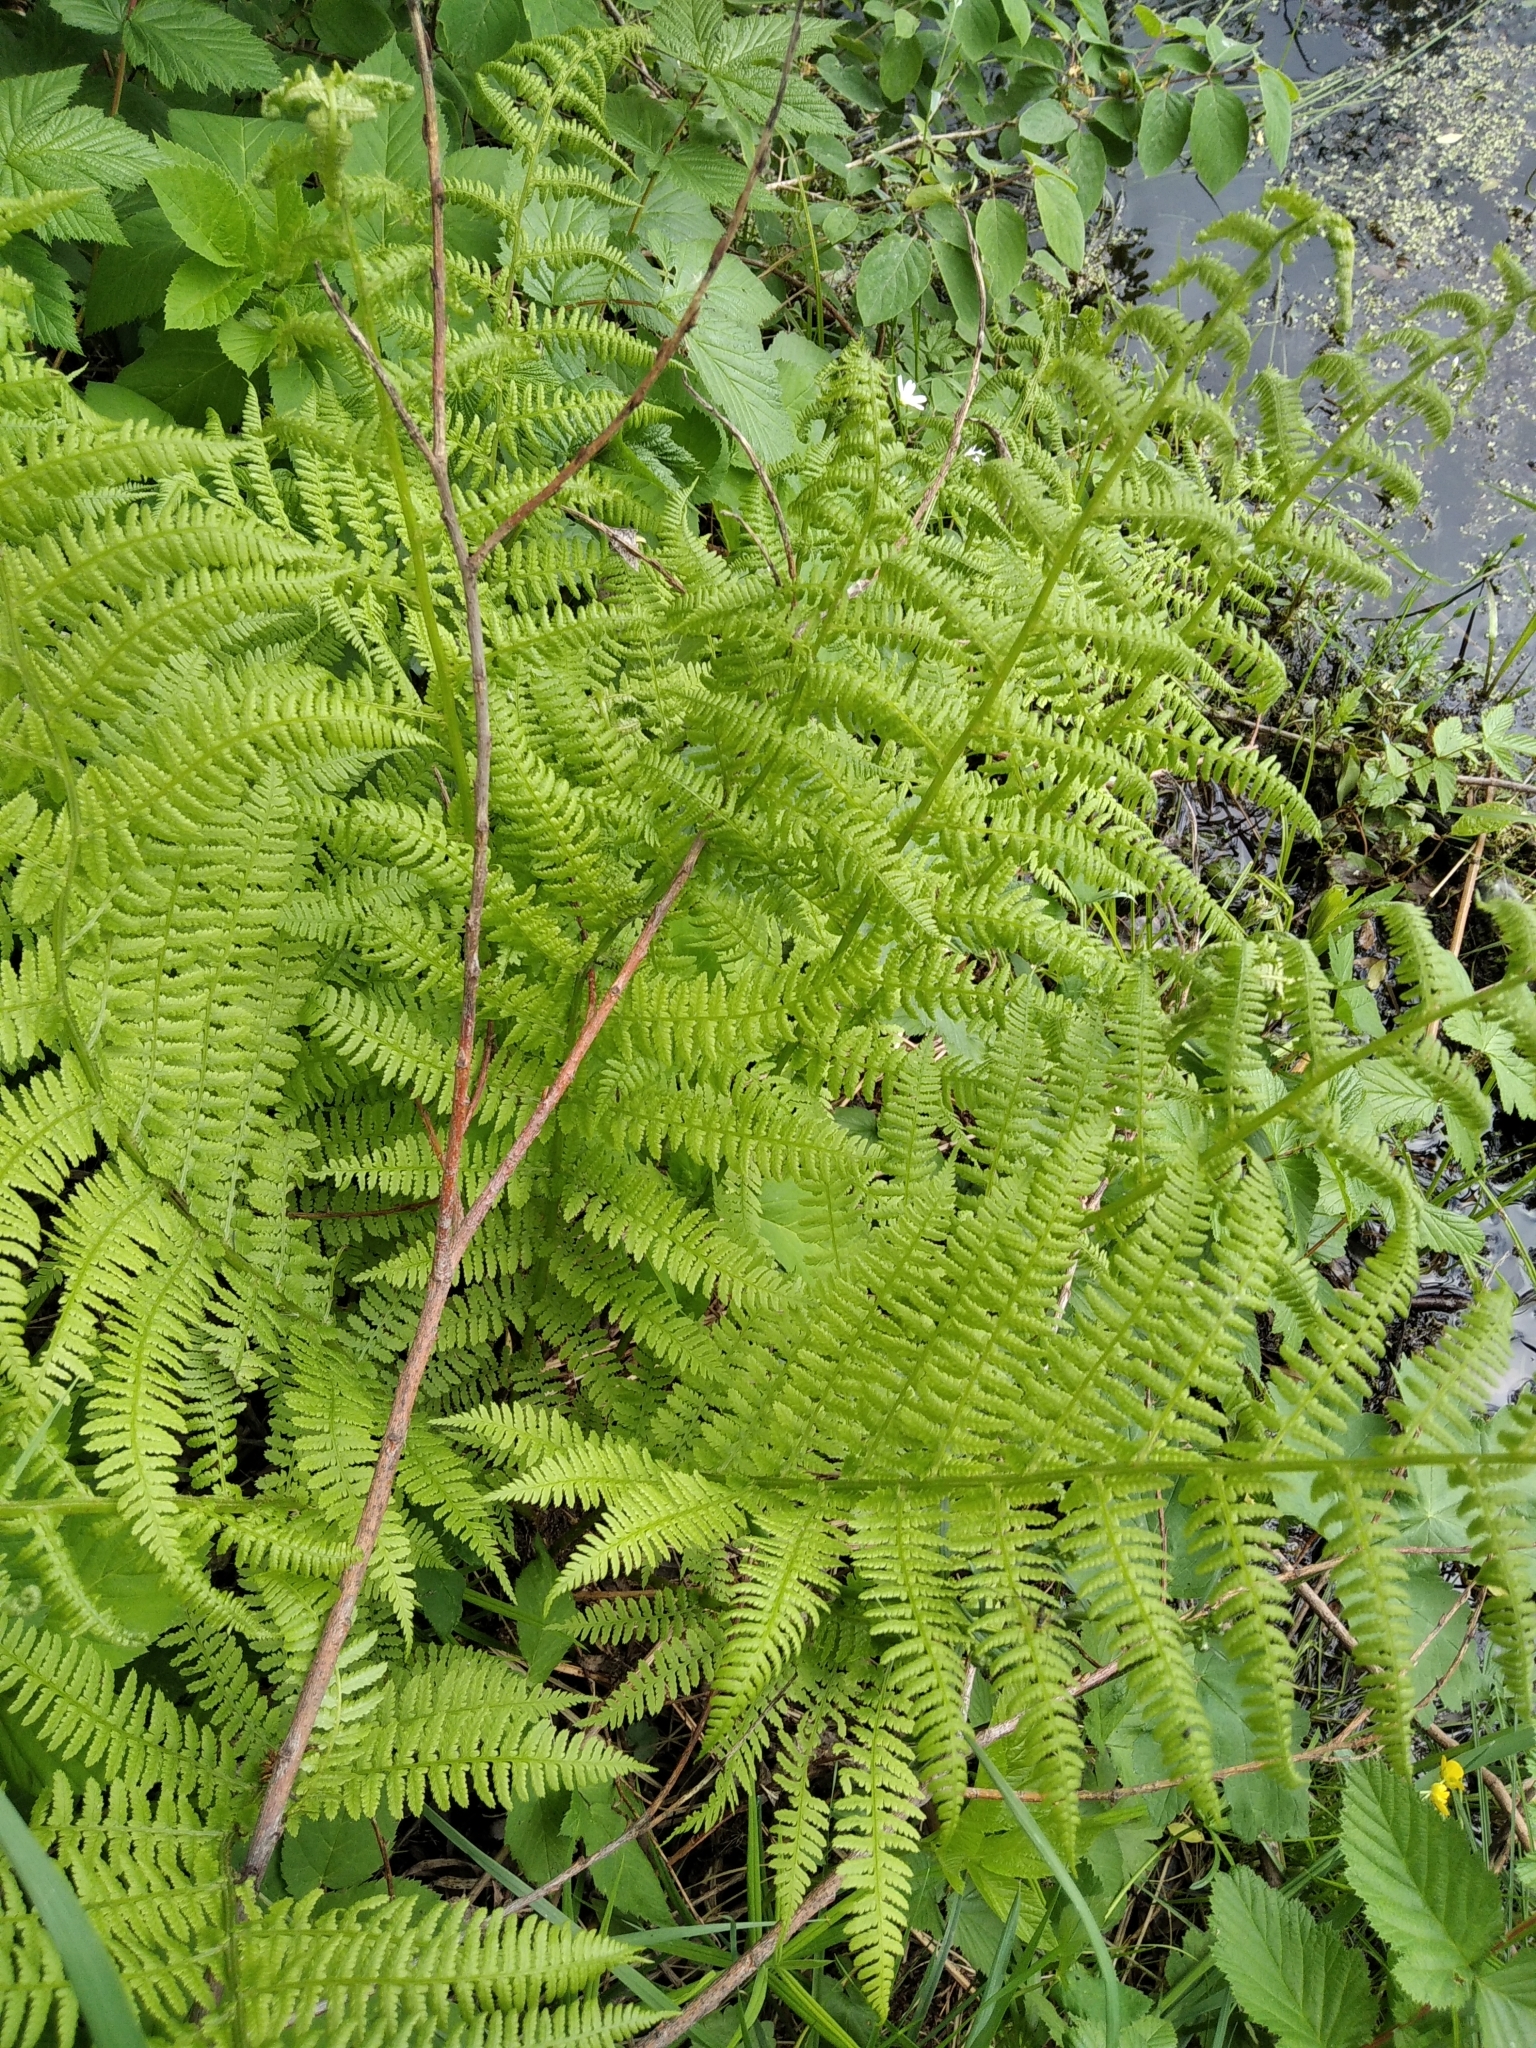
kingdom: Plantae
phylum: Tracheophyta
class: Polypodiopsida
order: Polypodiales
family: Athyriaceae
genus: Athyrium
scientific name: Athyrium filix-femina
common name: Lady fern
